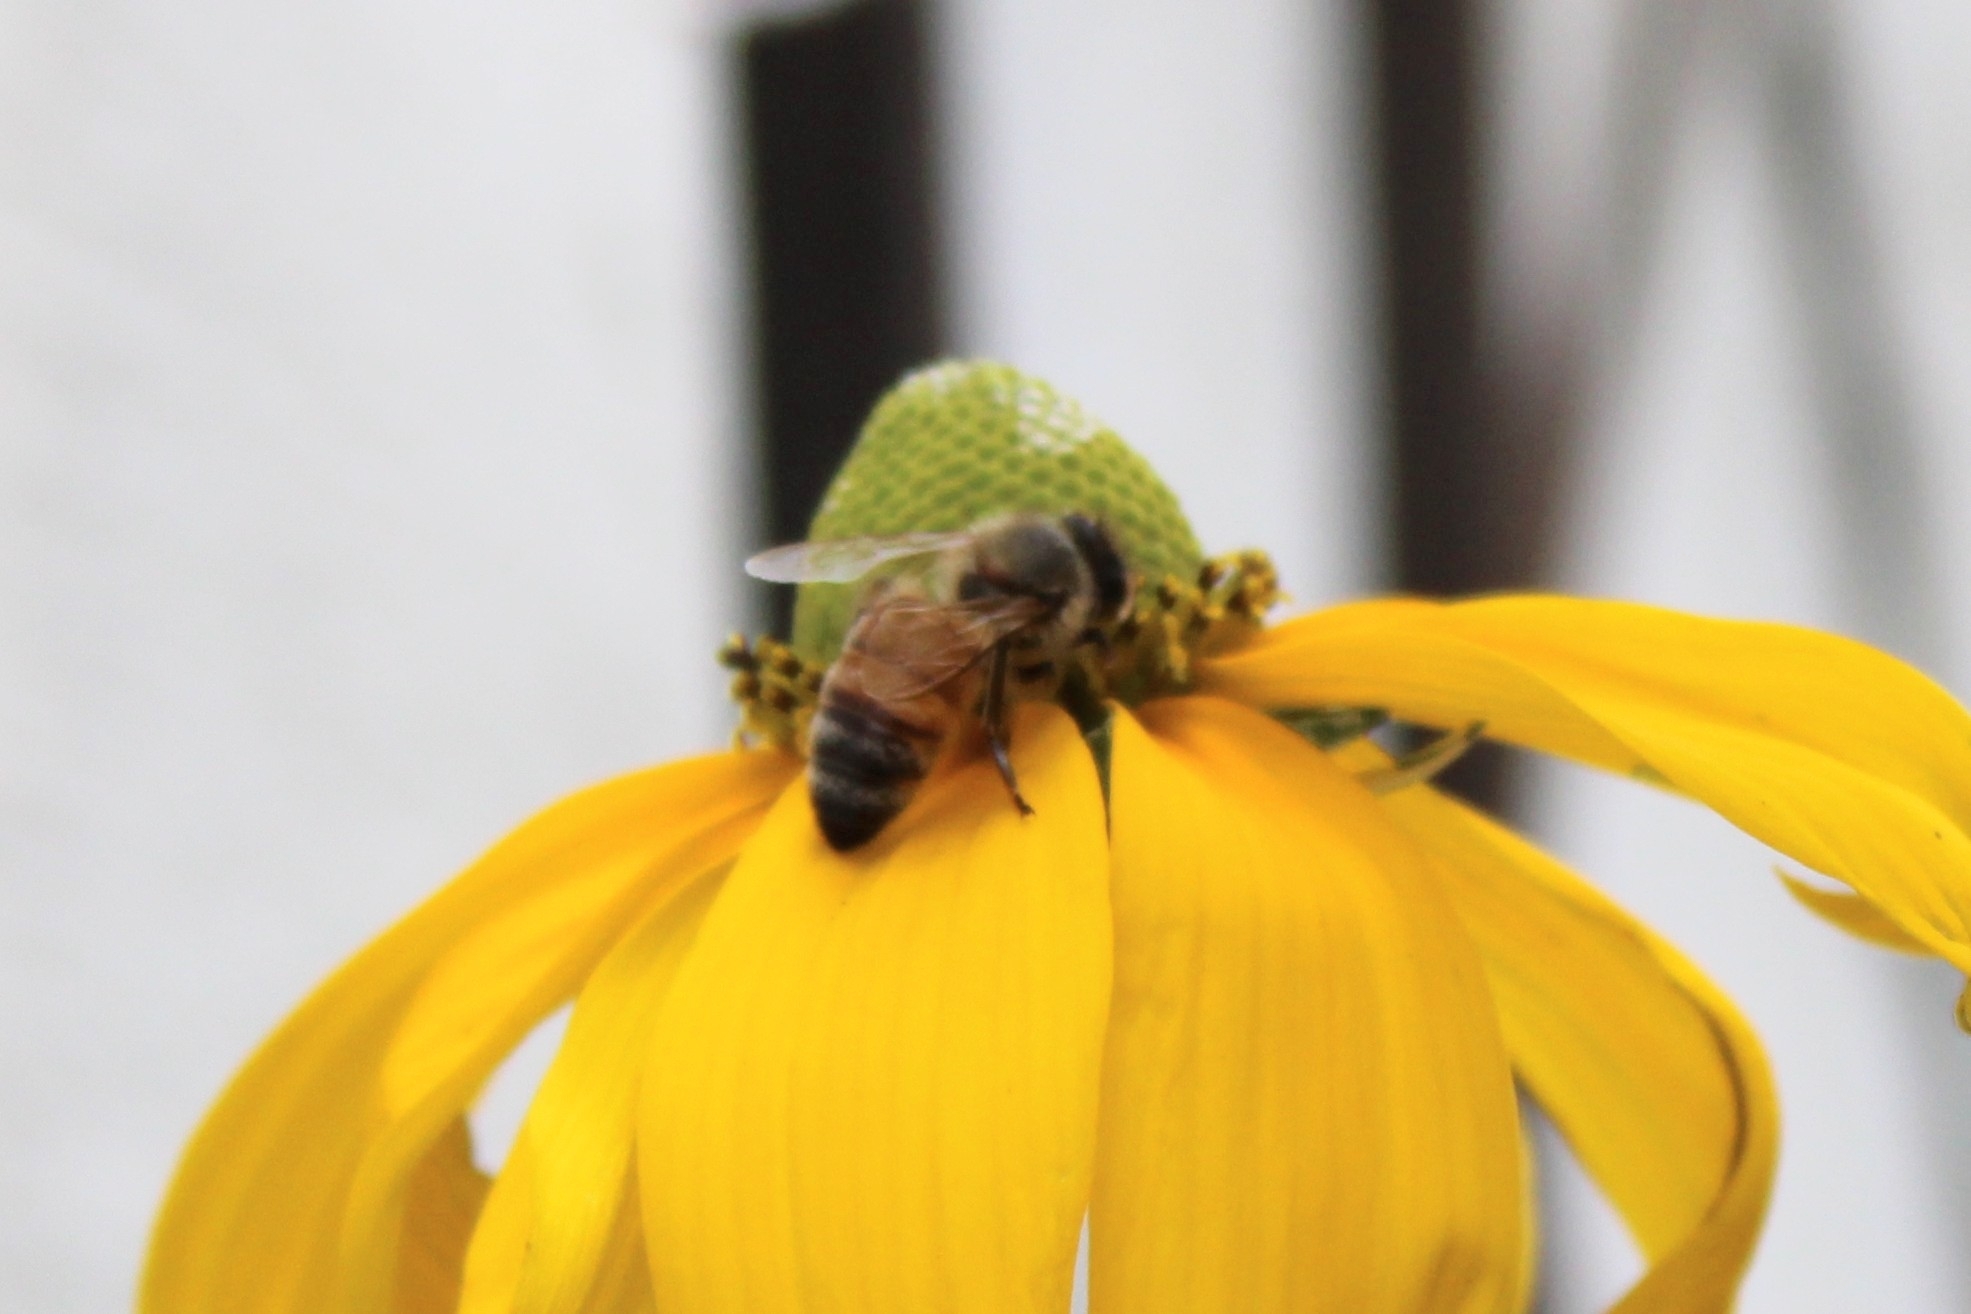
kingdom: Animalia
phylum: Arthropoda
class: Insecta
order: Hymenoptera
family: Apidae
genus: Apis
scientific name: Apis mellifera
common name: Honey bee
